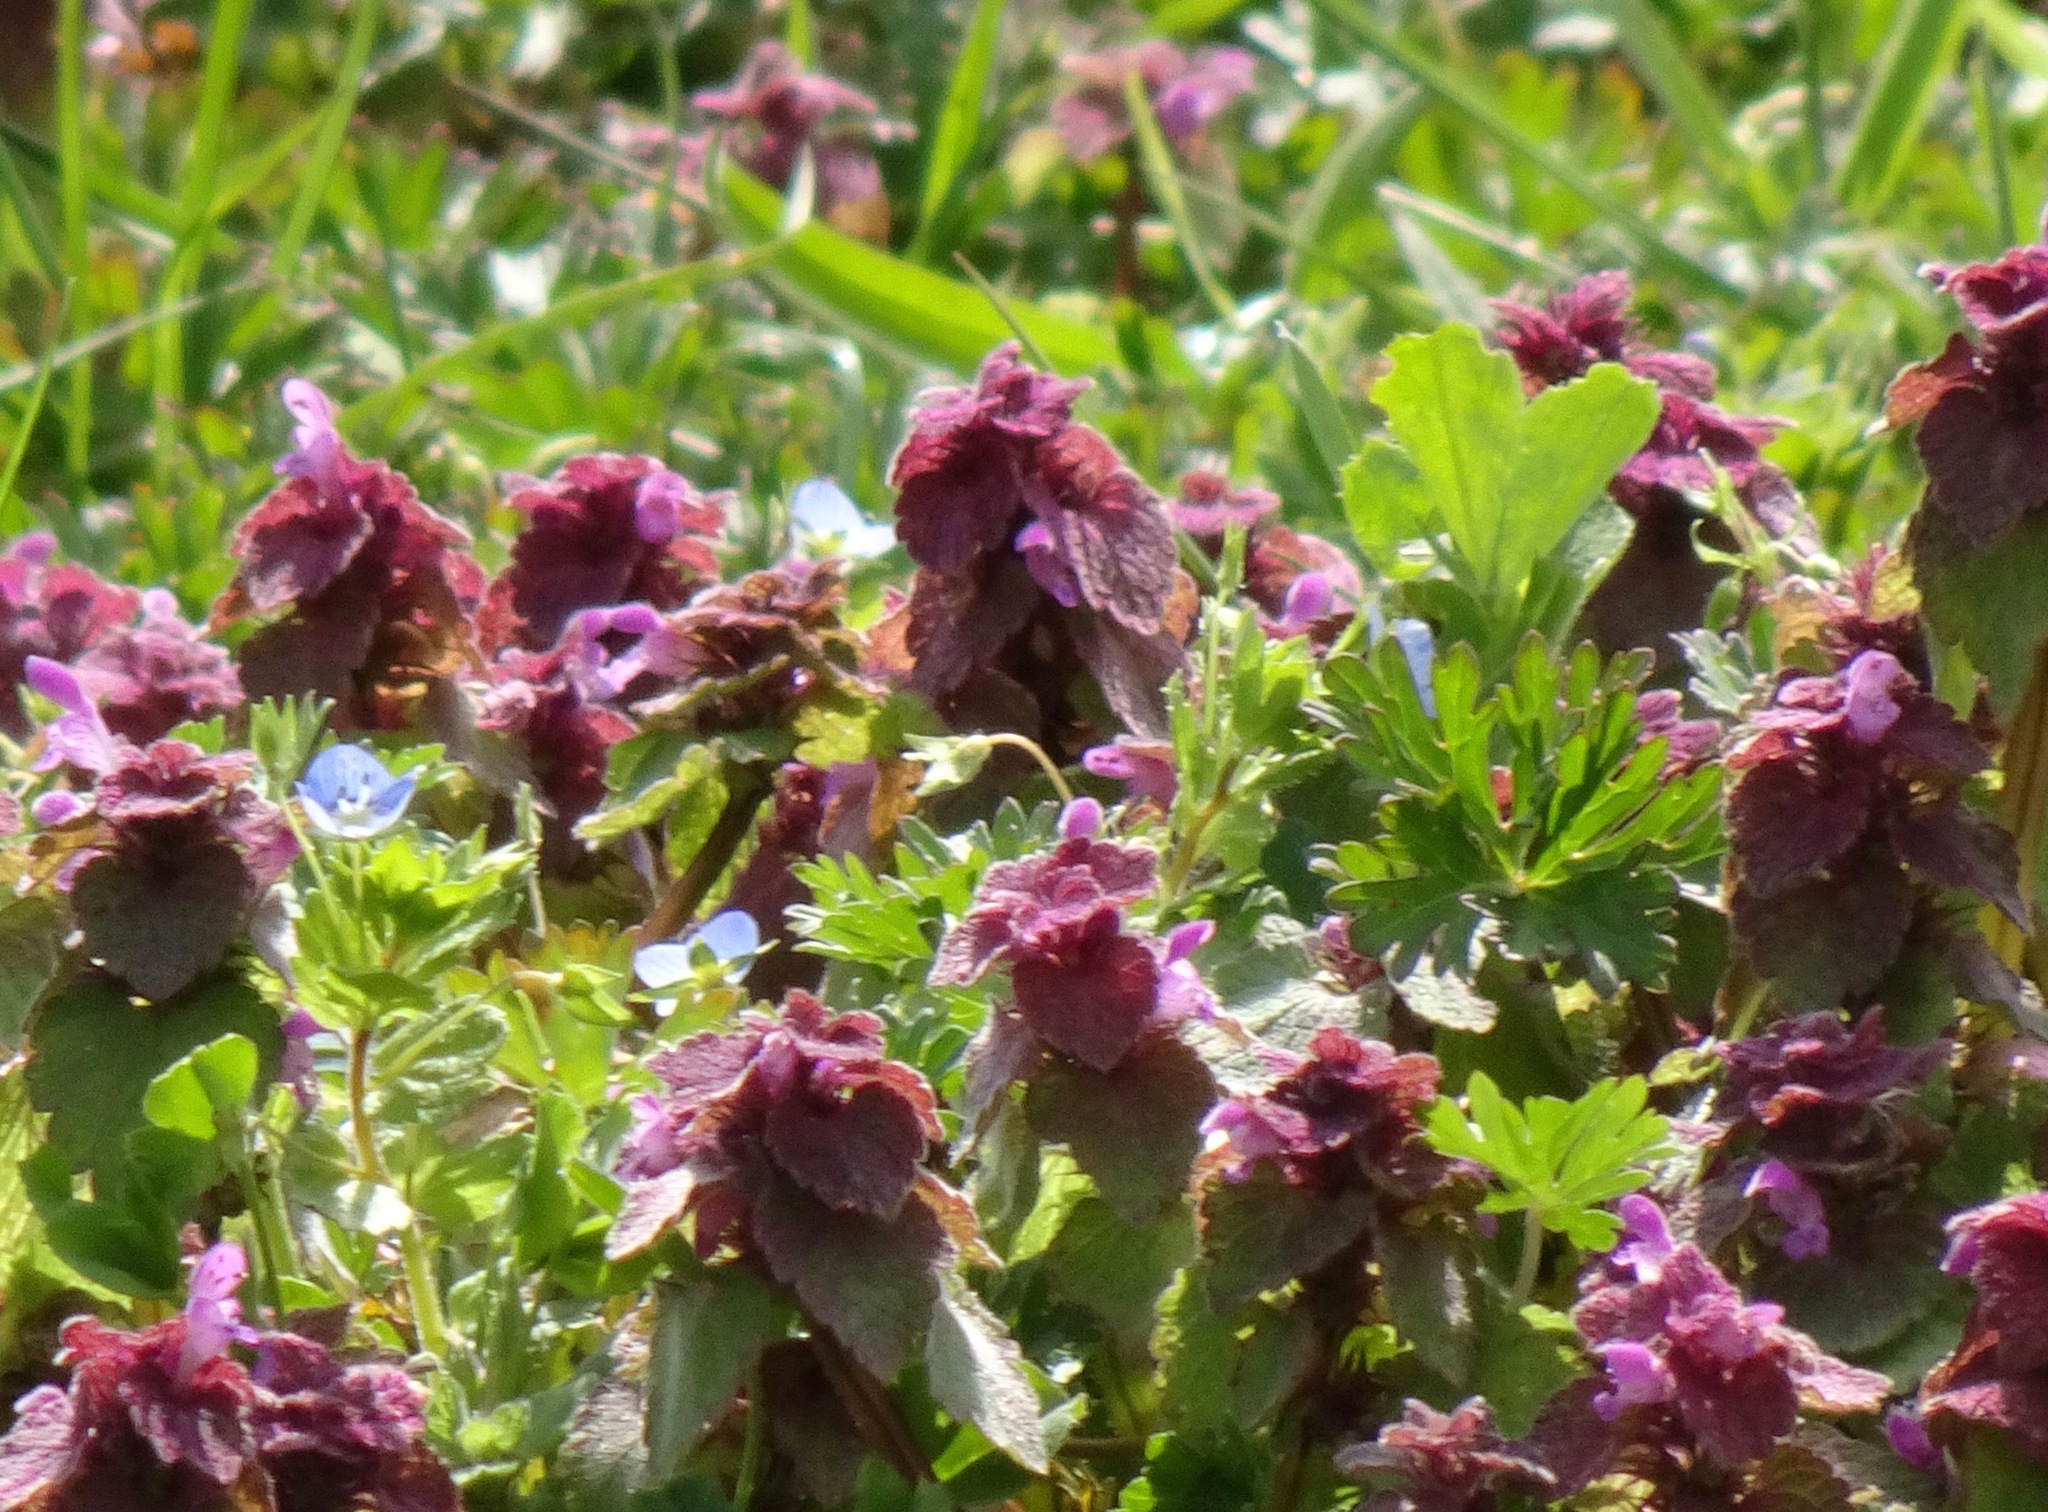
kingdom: Plantae
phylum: Tracheophyta
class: Magnoliopsida
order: Lamiales
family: Lamiaceae
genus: Lamium
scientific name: Lamium purpureum
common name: Red dead-nettle
